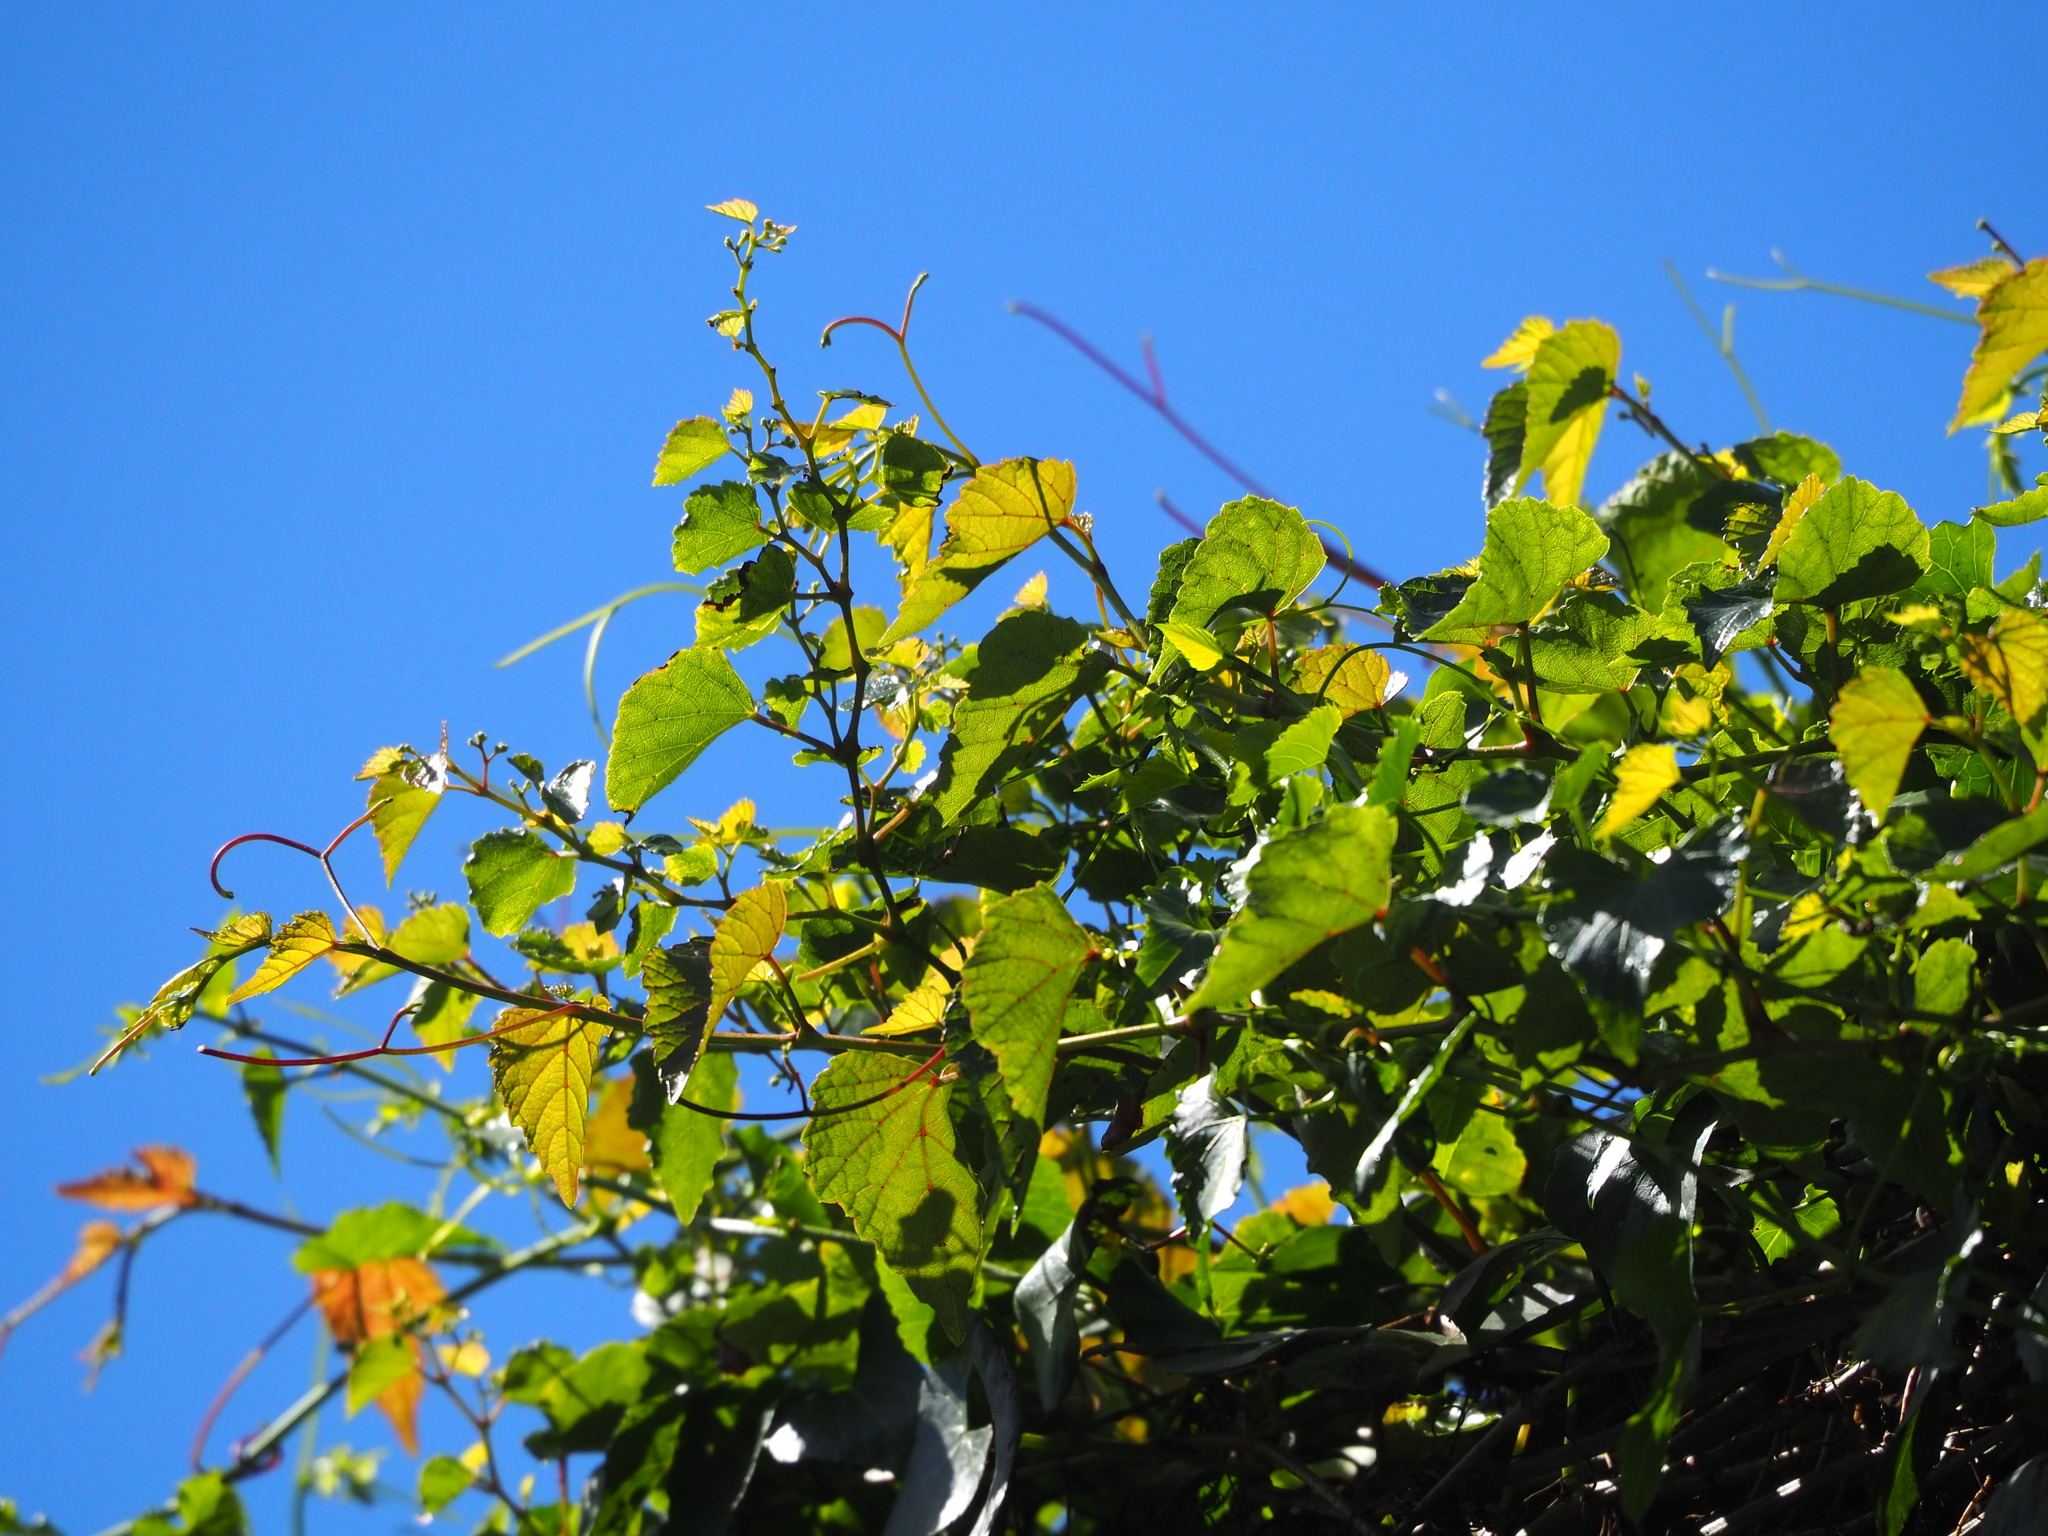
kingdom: Plantae
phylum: Tracheophyta
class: Magnoliopsida
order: Vitales
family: Vitaceae
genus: Ampelopsis
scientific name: Ampelopsis glandulosa
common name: Amur peppervine
